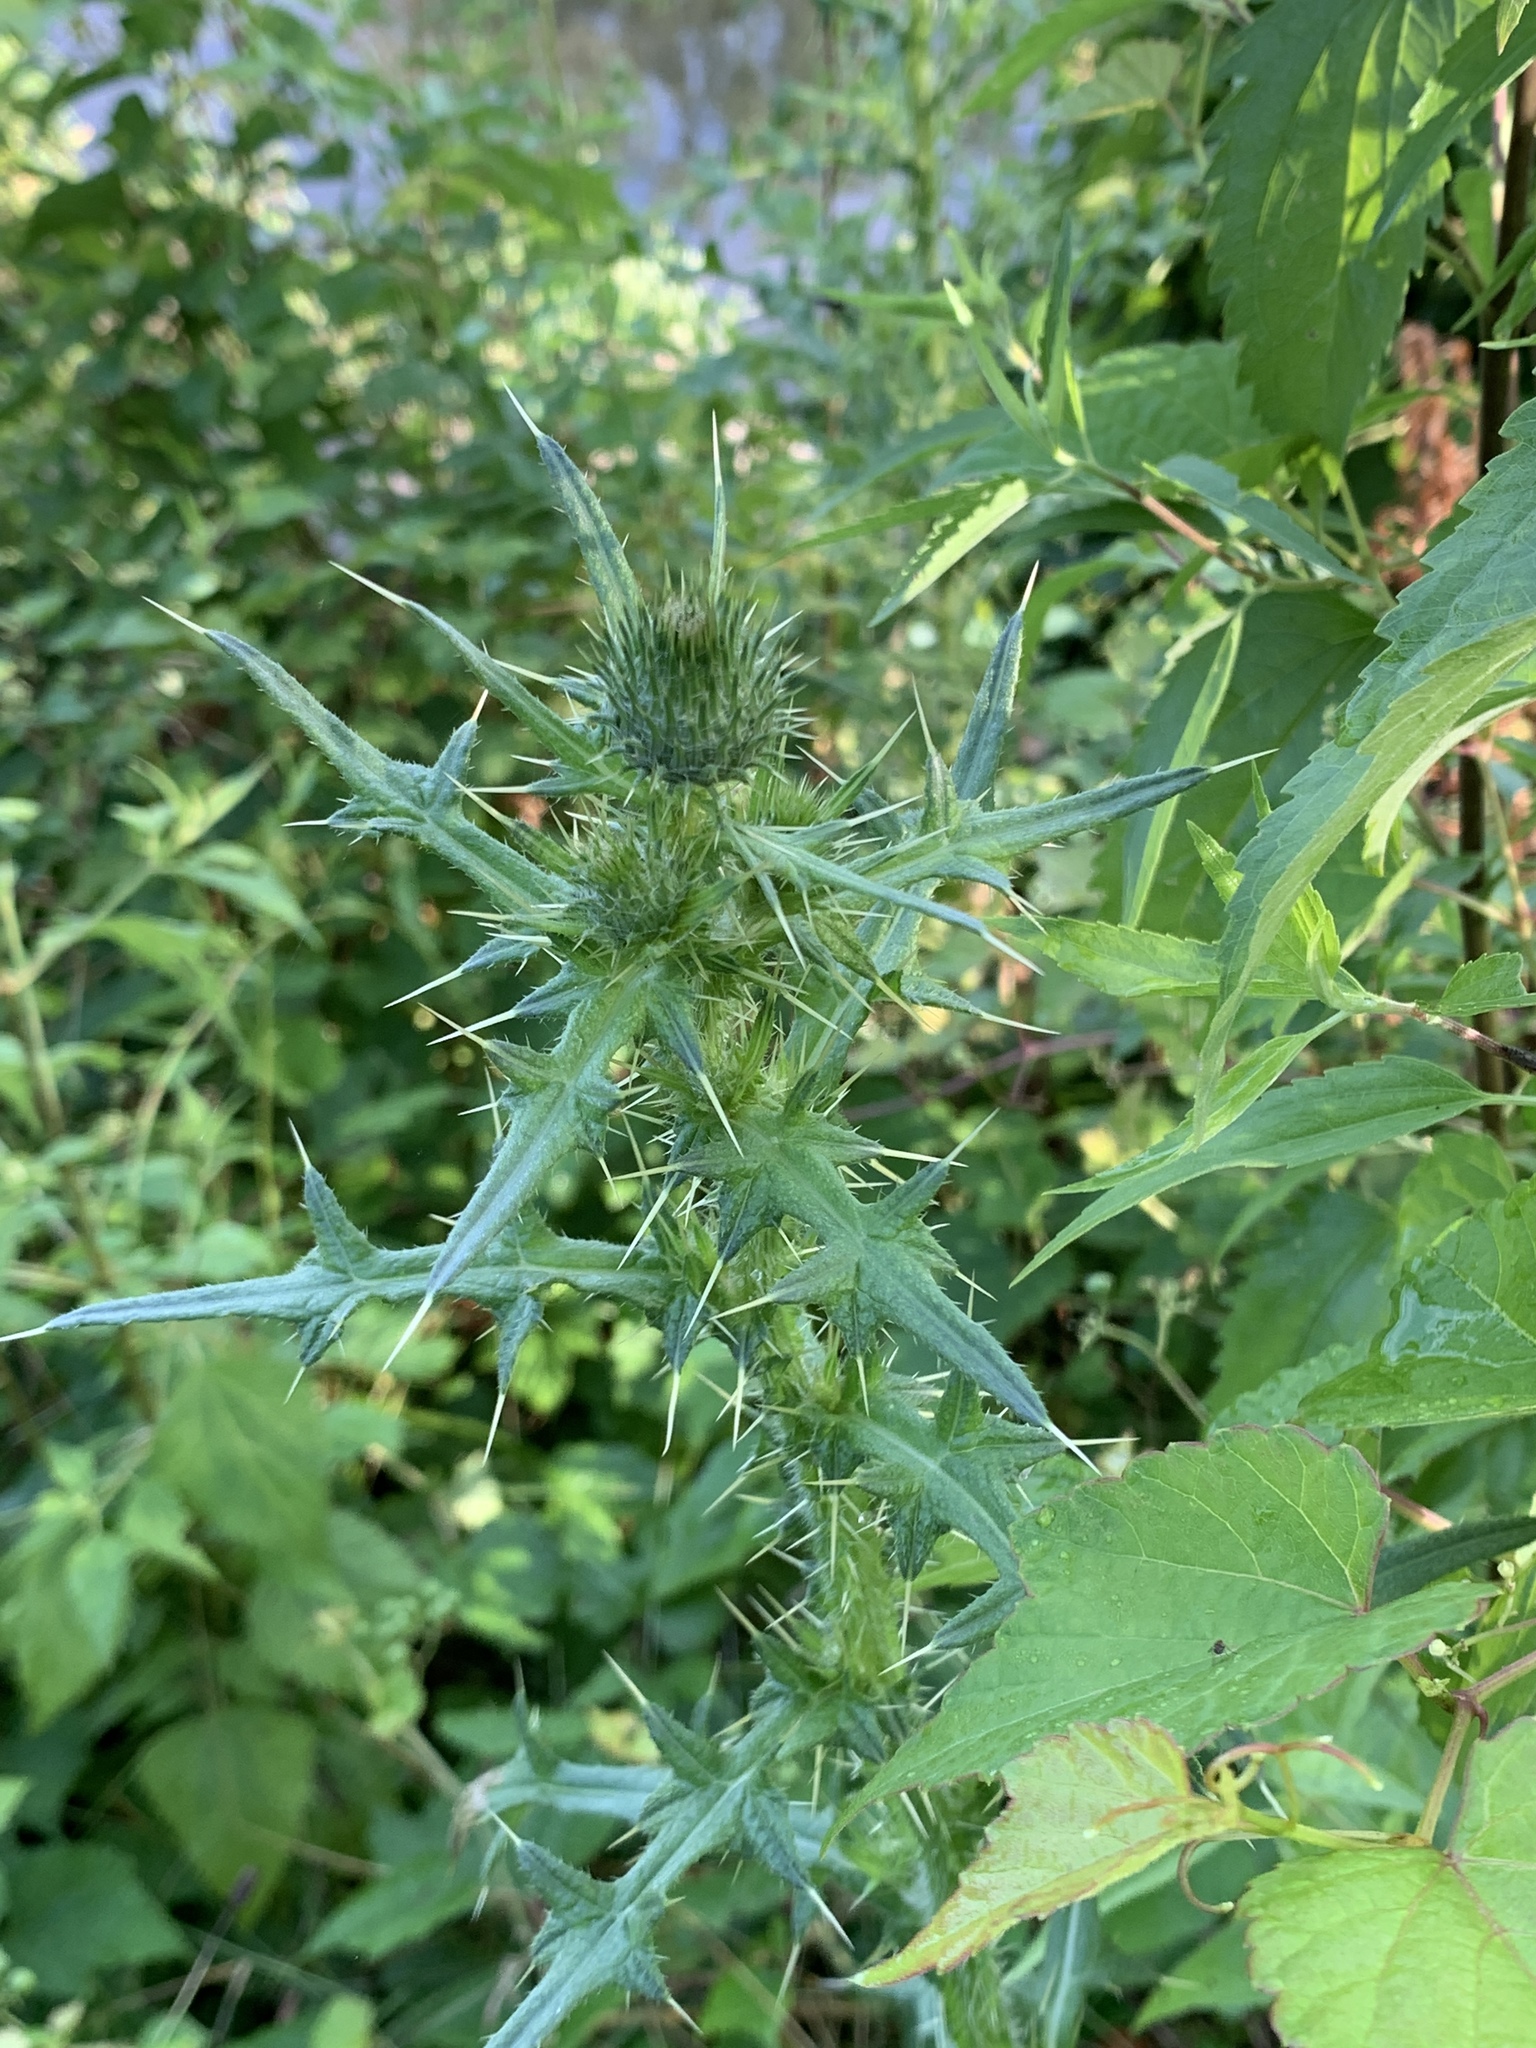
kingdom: Plantae
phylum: Tracheophyta
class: Magnoliopsida
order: Asterales
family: Asteraceae
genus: Cirsium
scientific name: Cirsium vulgare
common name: Bull thistle
